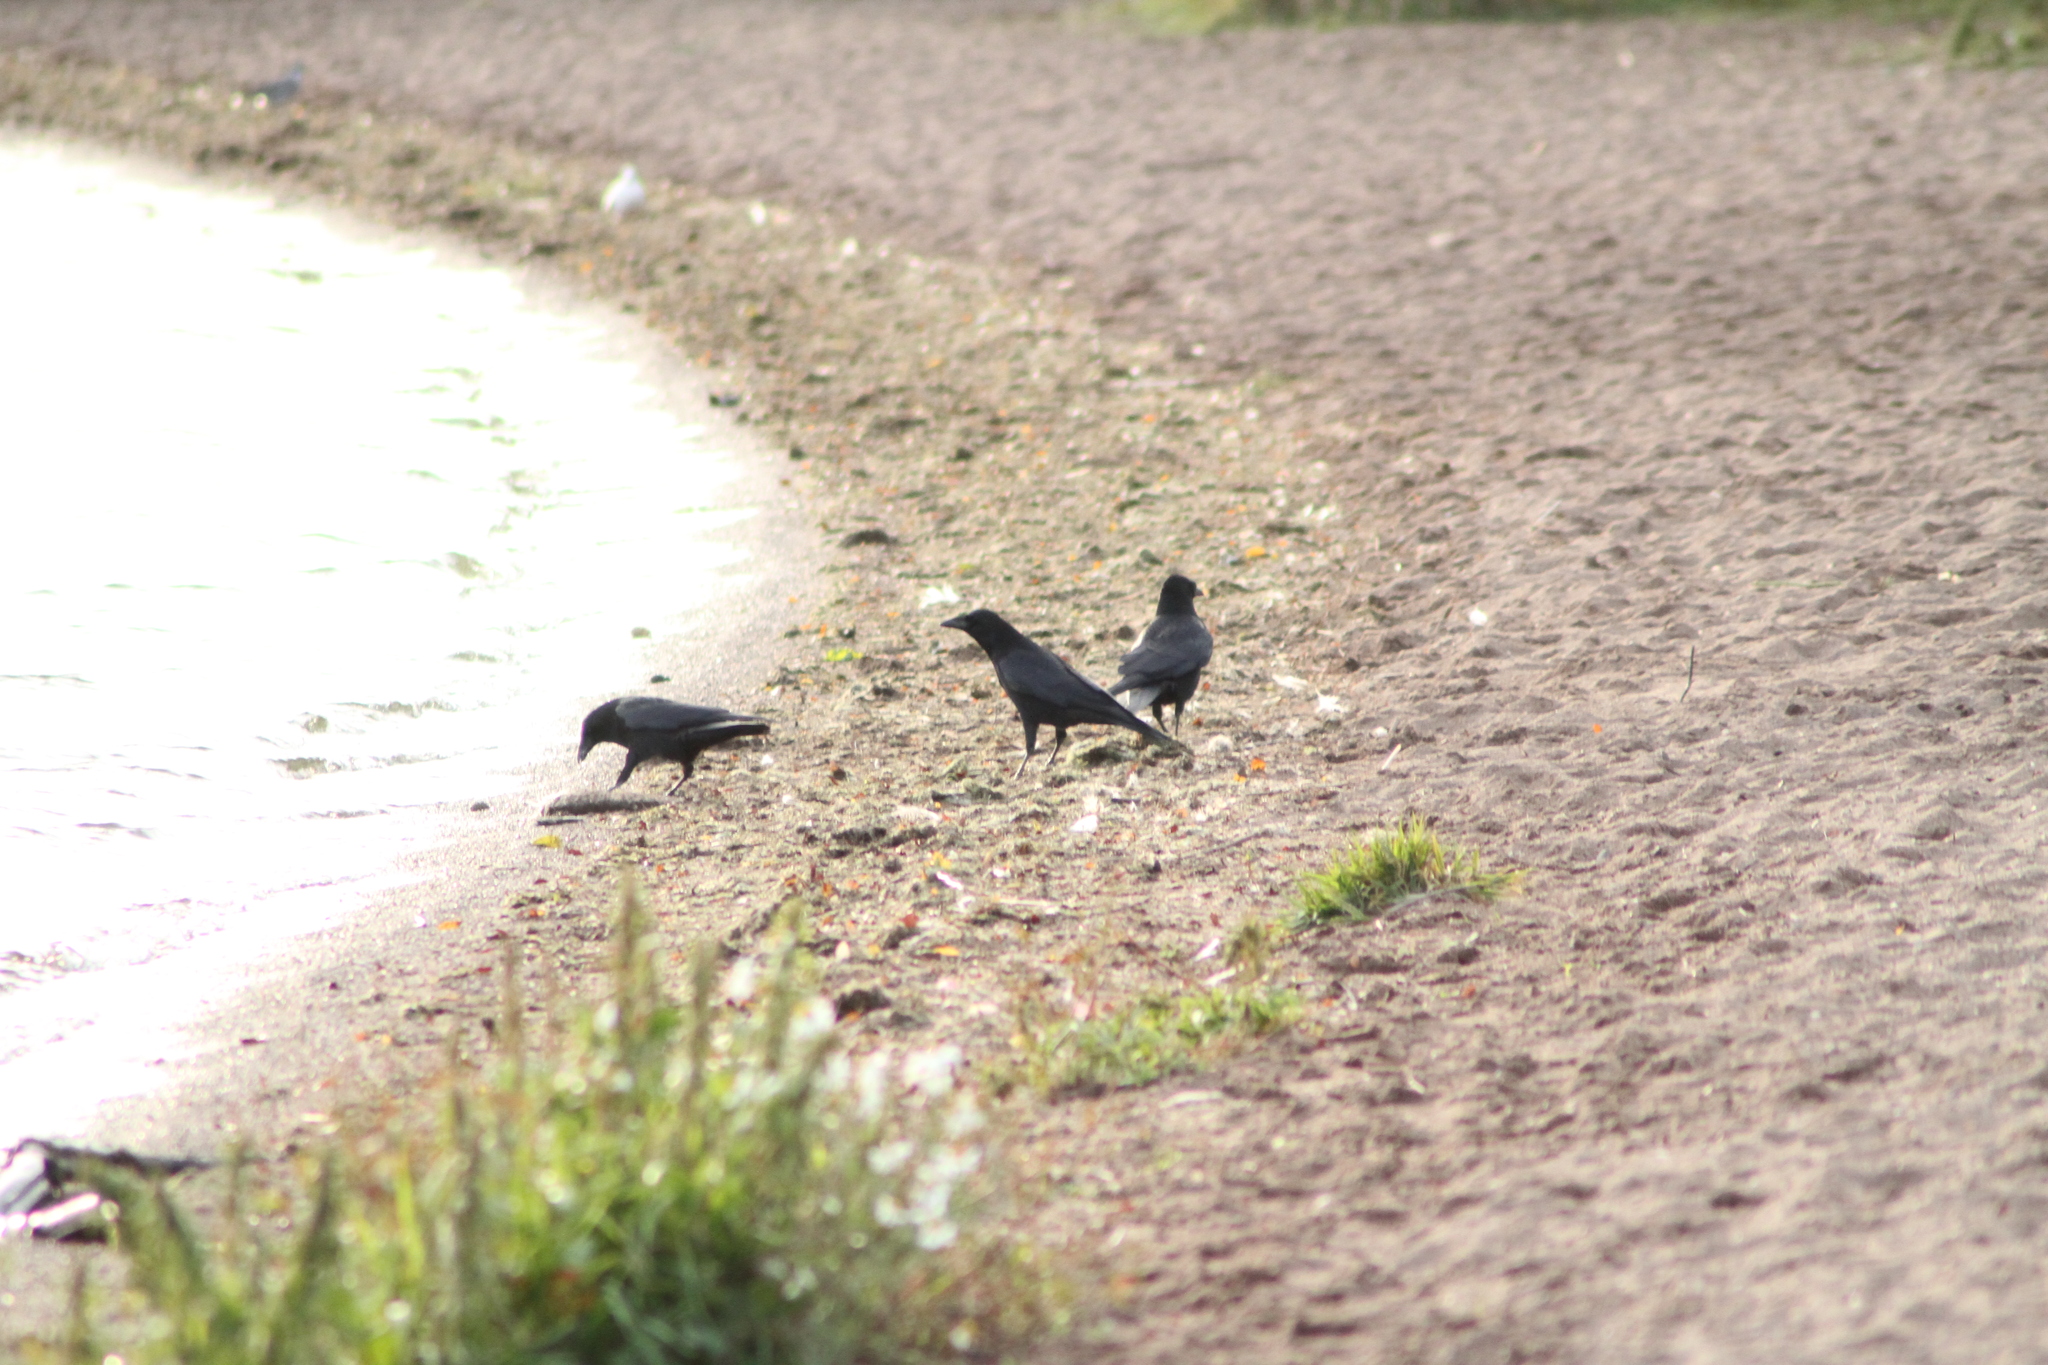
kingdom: Animalia
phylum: Chordata
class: Aves
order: Passeriformes
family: Corvidae
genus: Corvus
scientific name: Corvus corone
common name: Carrion crow
